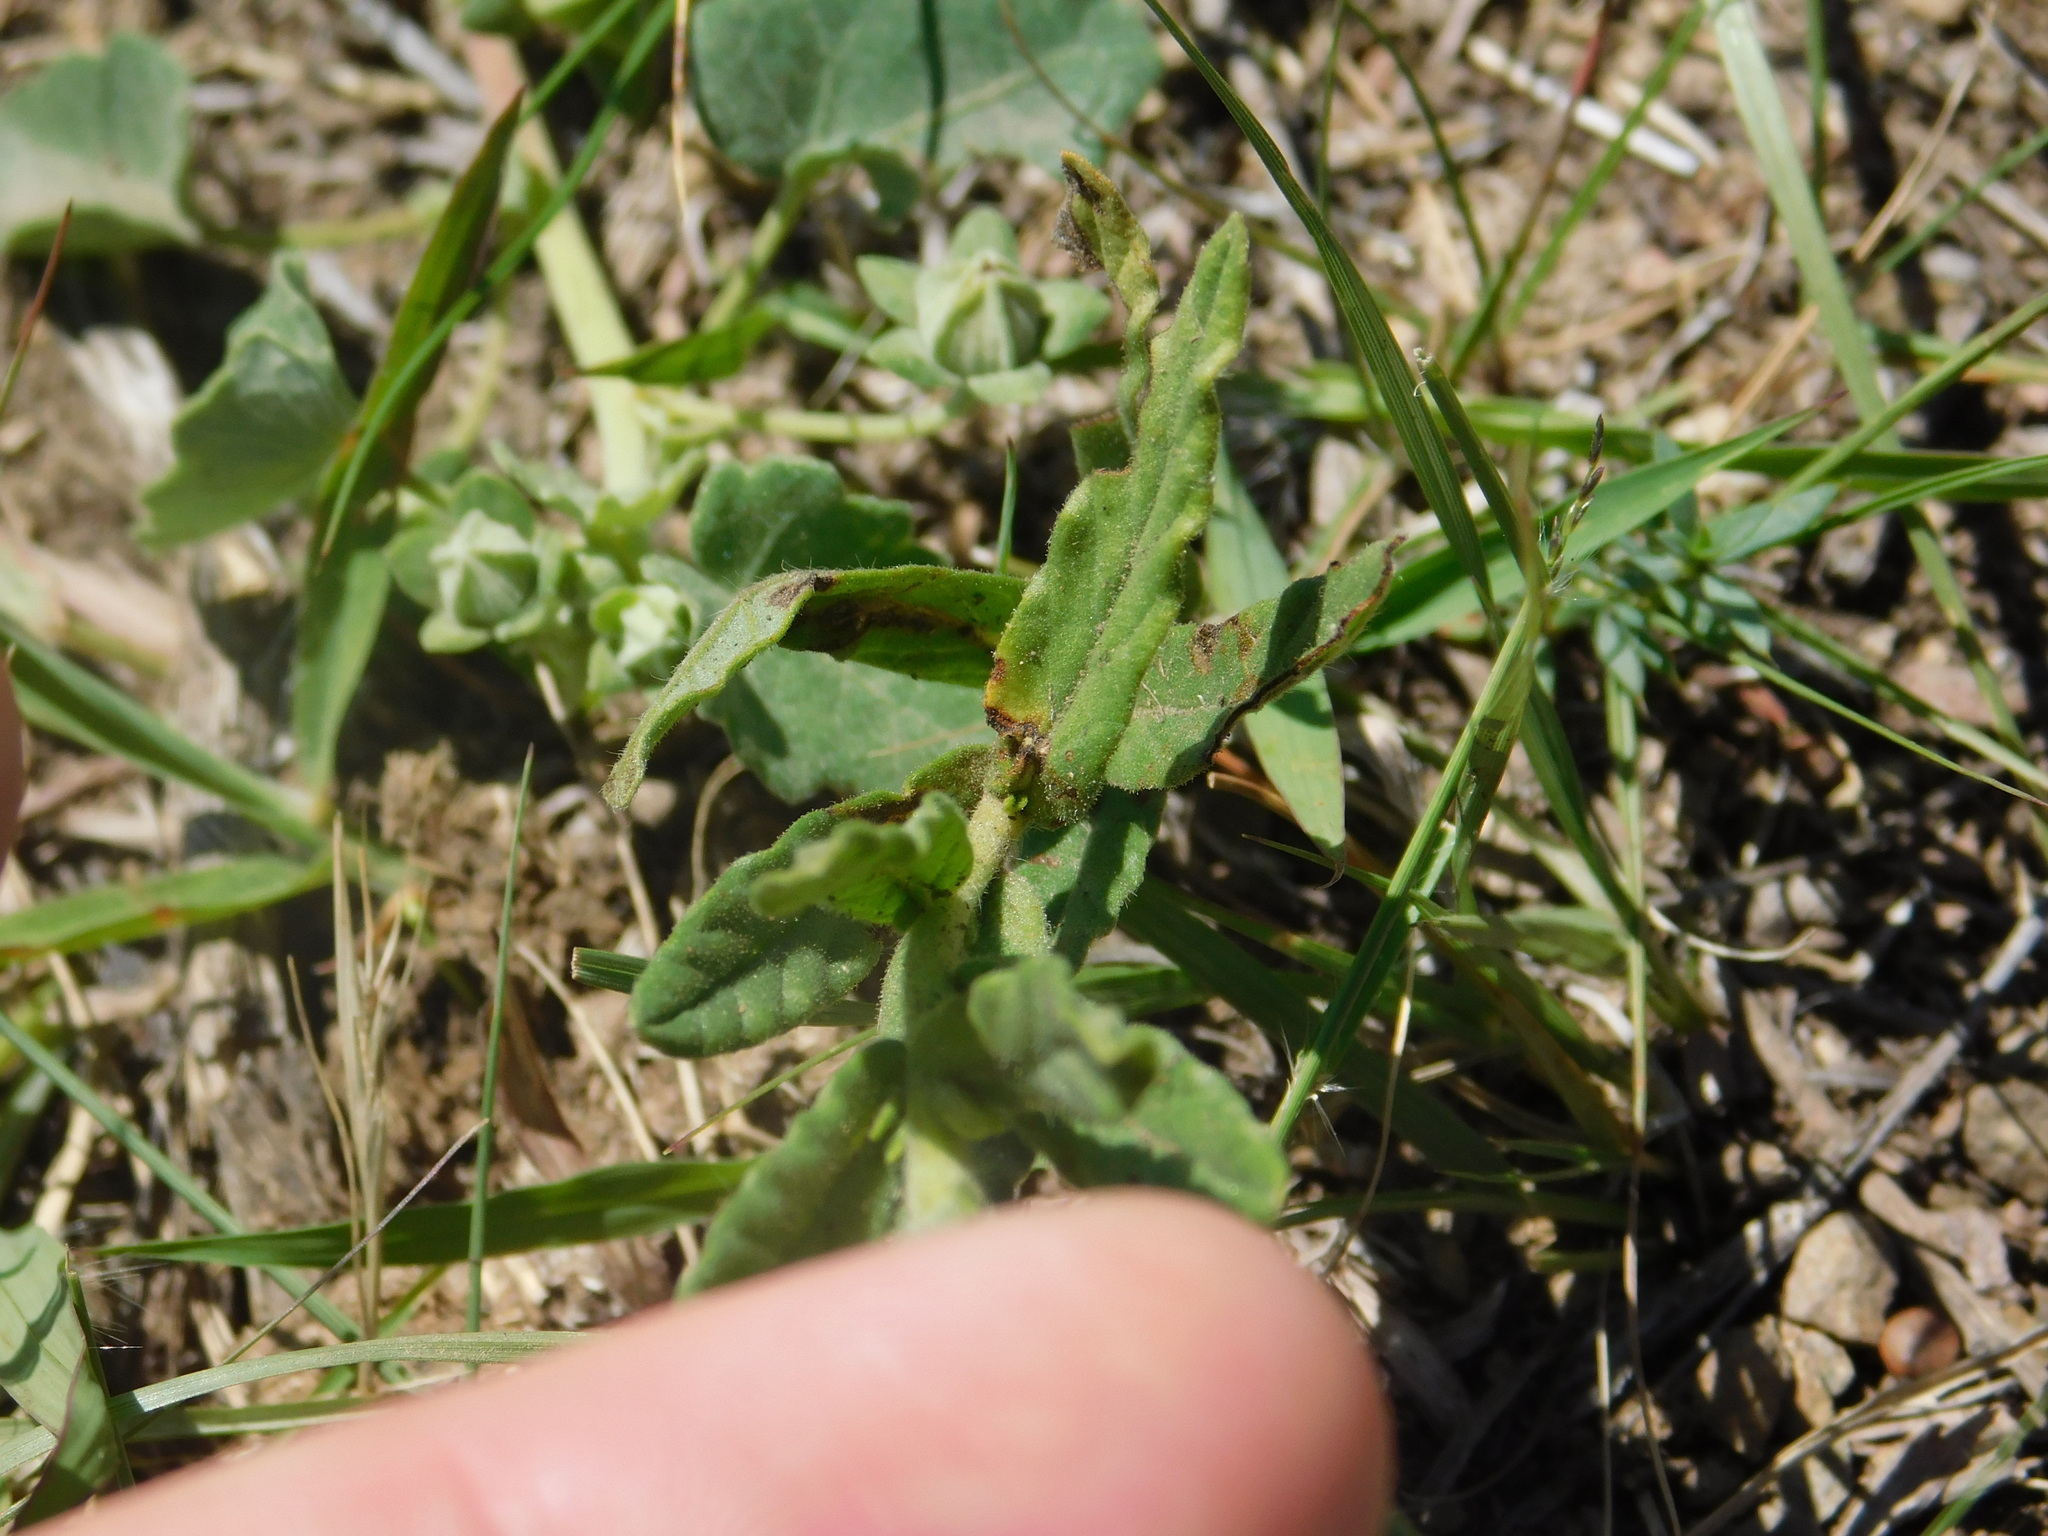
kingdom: Plantae
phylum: Tracheophyta
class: Magnoliopsida
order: Boraginales
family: Heliotropiaceae
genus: Heliotropium
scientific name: Heliotropium amplexicaule
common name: Clasping heliotrope
